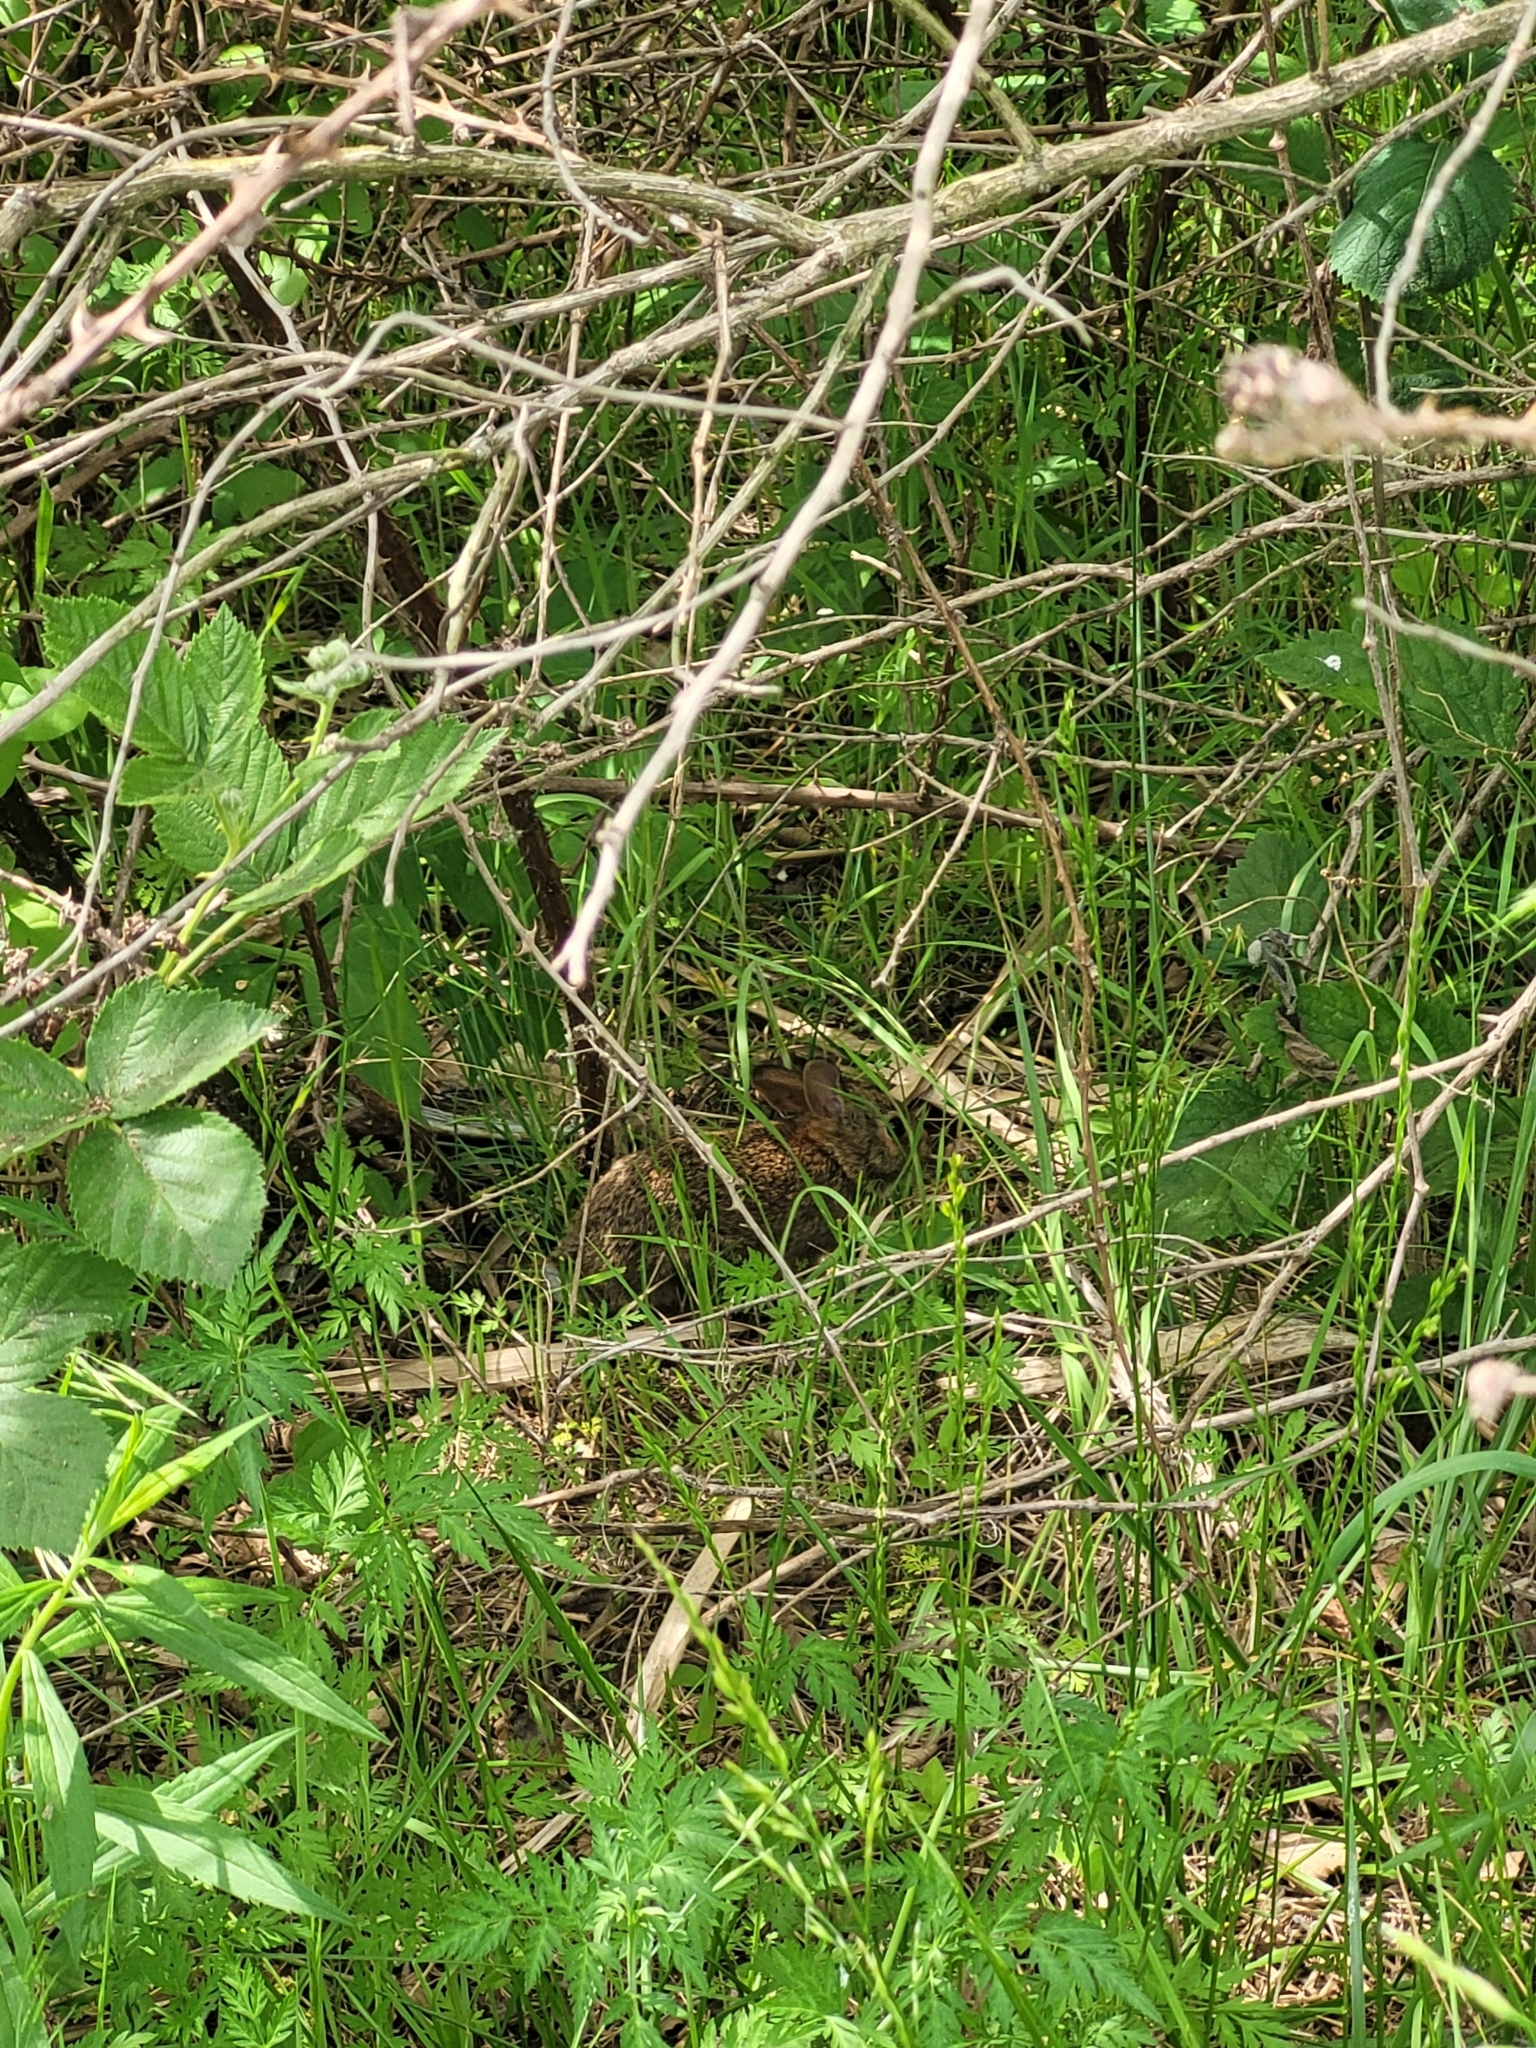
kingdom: Animalia
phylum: Chordata
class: Mammalia
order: Lagomorpha
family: Leporidae
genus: Sylvilagus
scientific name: Sylvilagus floridanus
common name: Eastern cottontail
